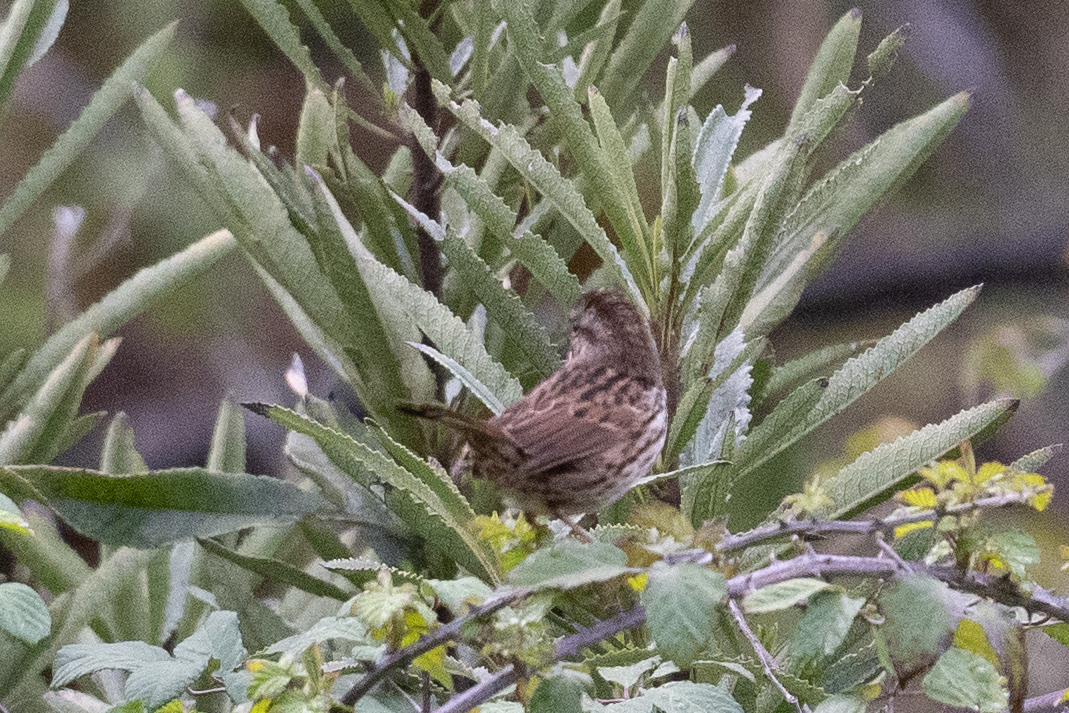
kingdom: Animalia
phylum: Chordata
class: Aves
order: Passeriformes
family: Passerellidae
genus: Melospiza
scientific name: Melospiza melodia
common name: Song sparrow
